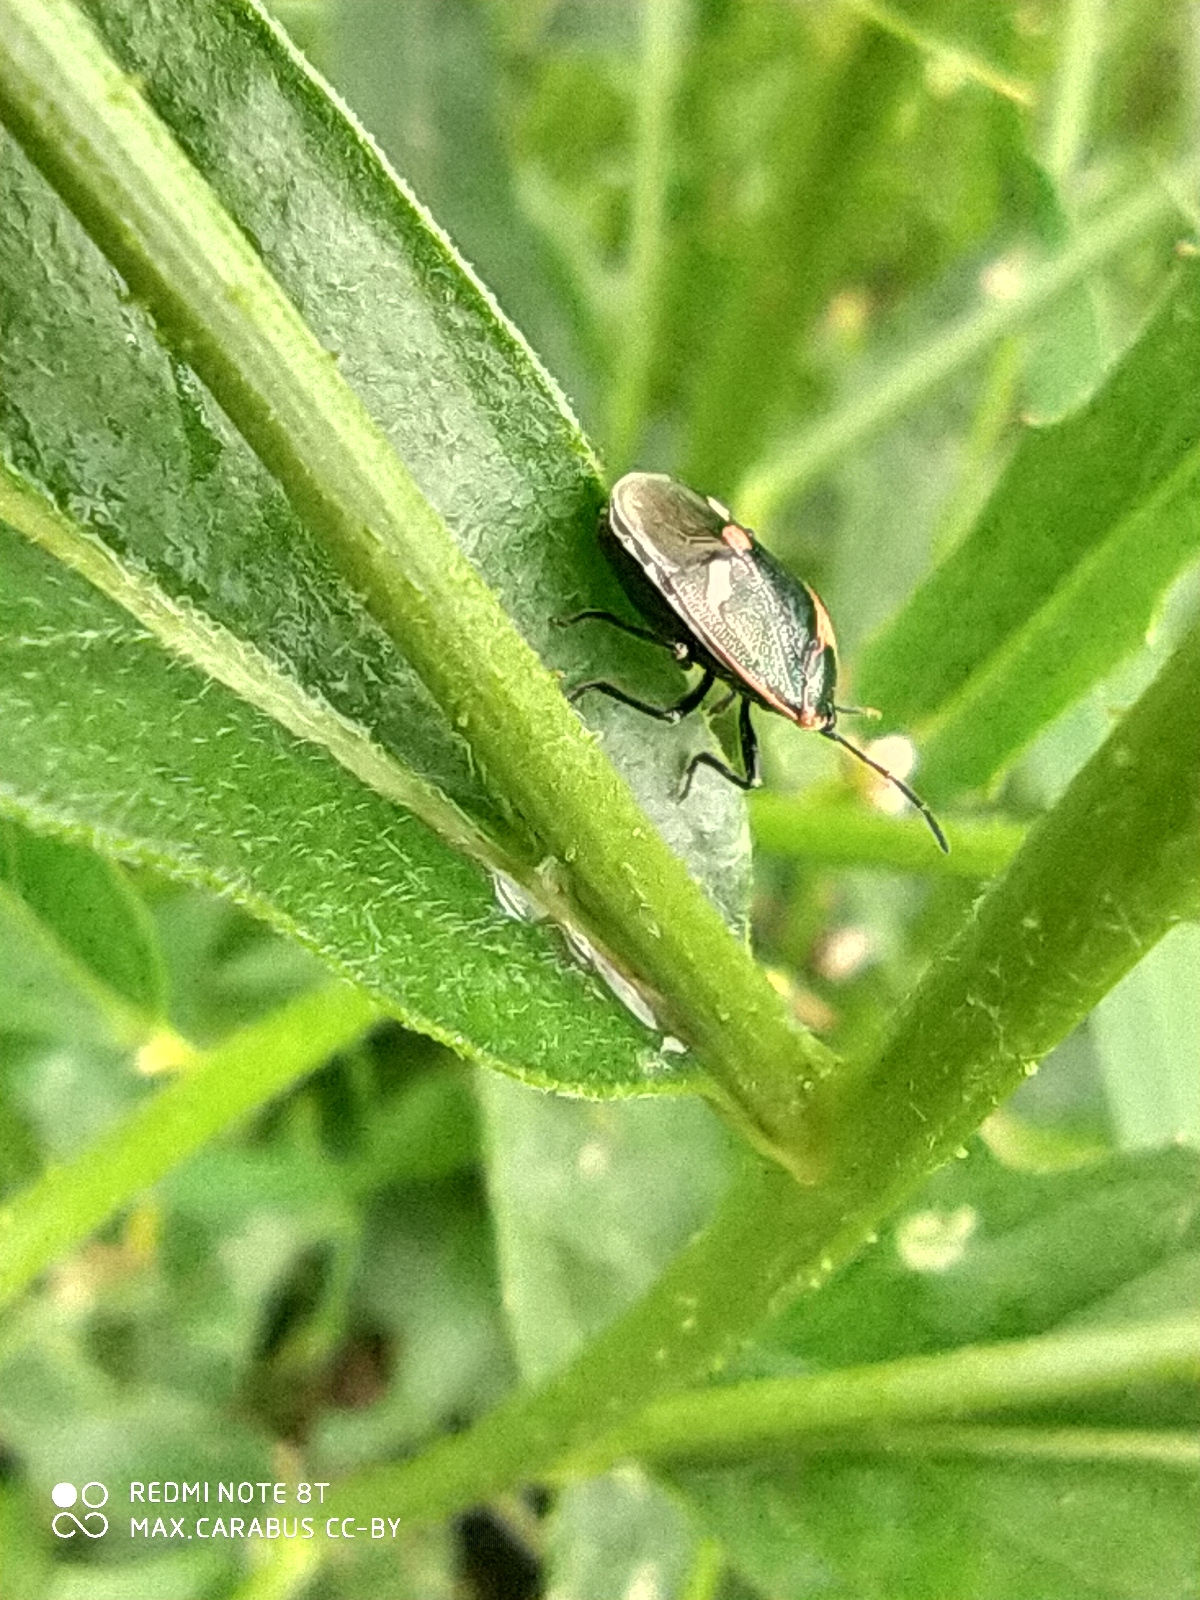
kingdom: Animalia
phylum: Arthropoda
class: Insecta
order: Hemiptera
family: Pentatomidae
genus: Eurydema
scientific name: Eurydema oleracea
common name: Cabbage bug
